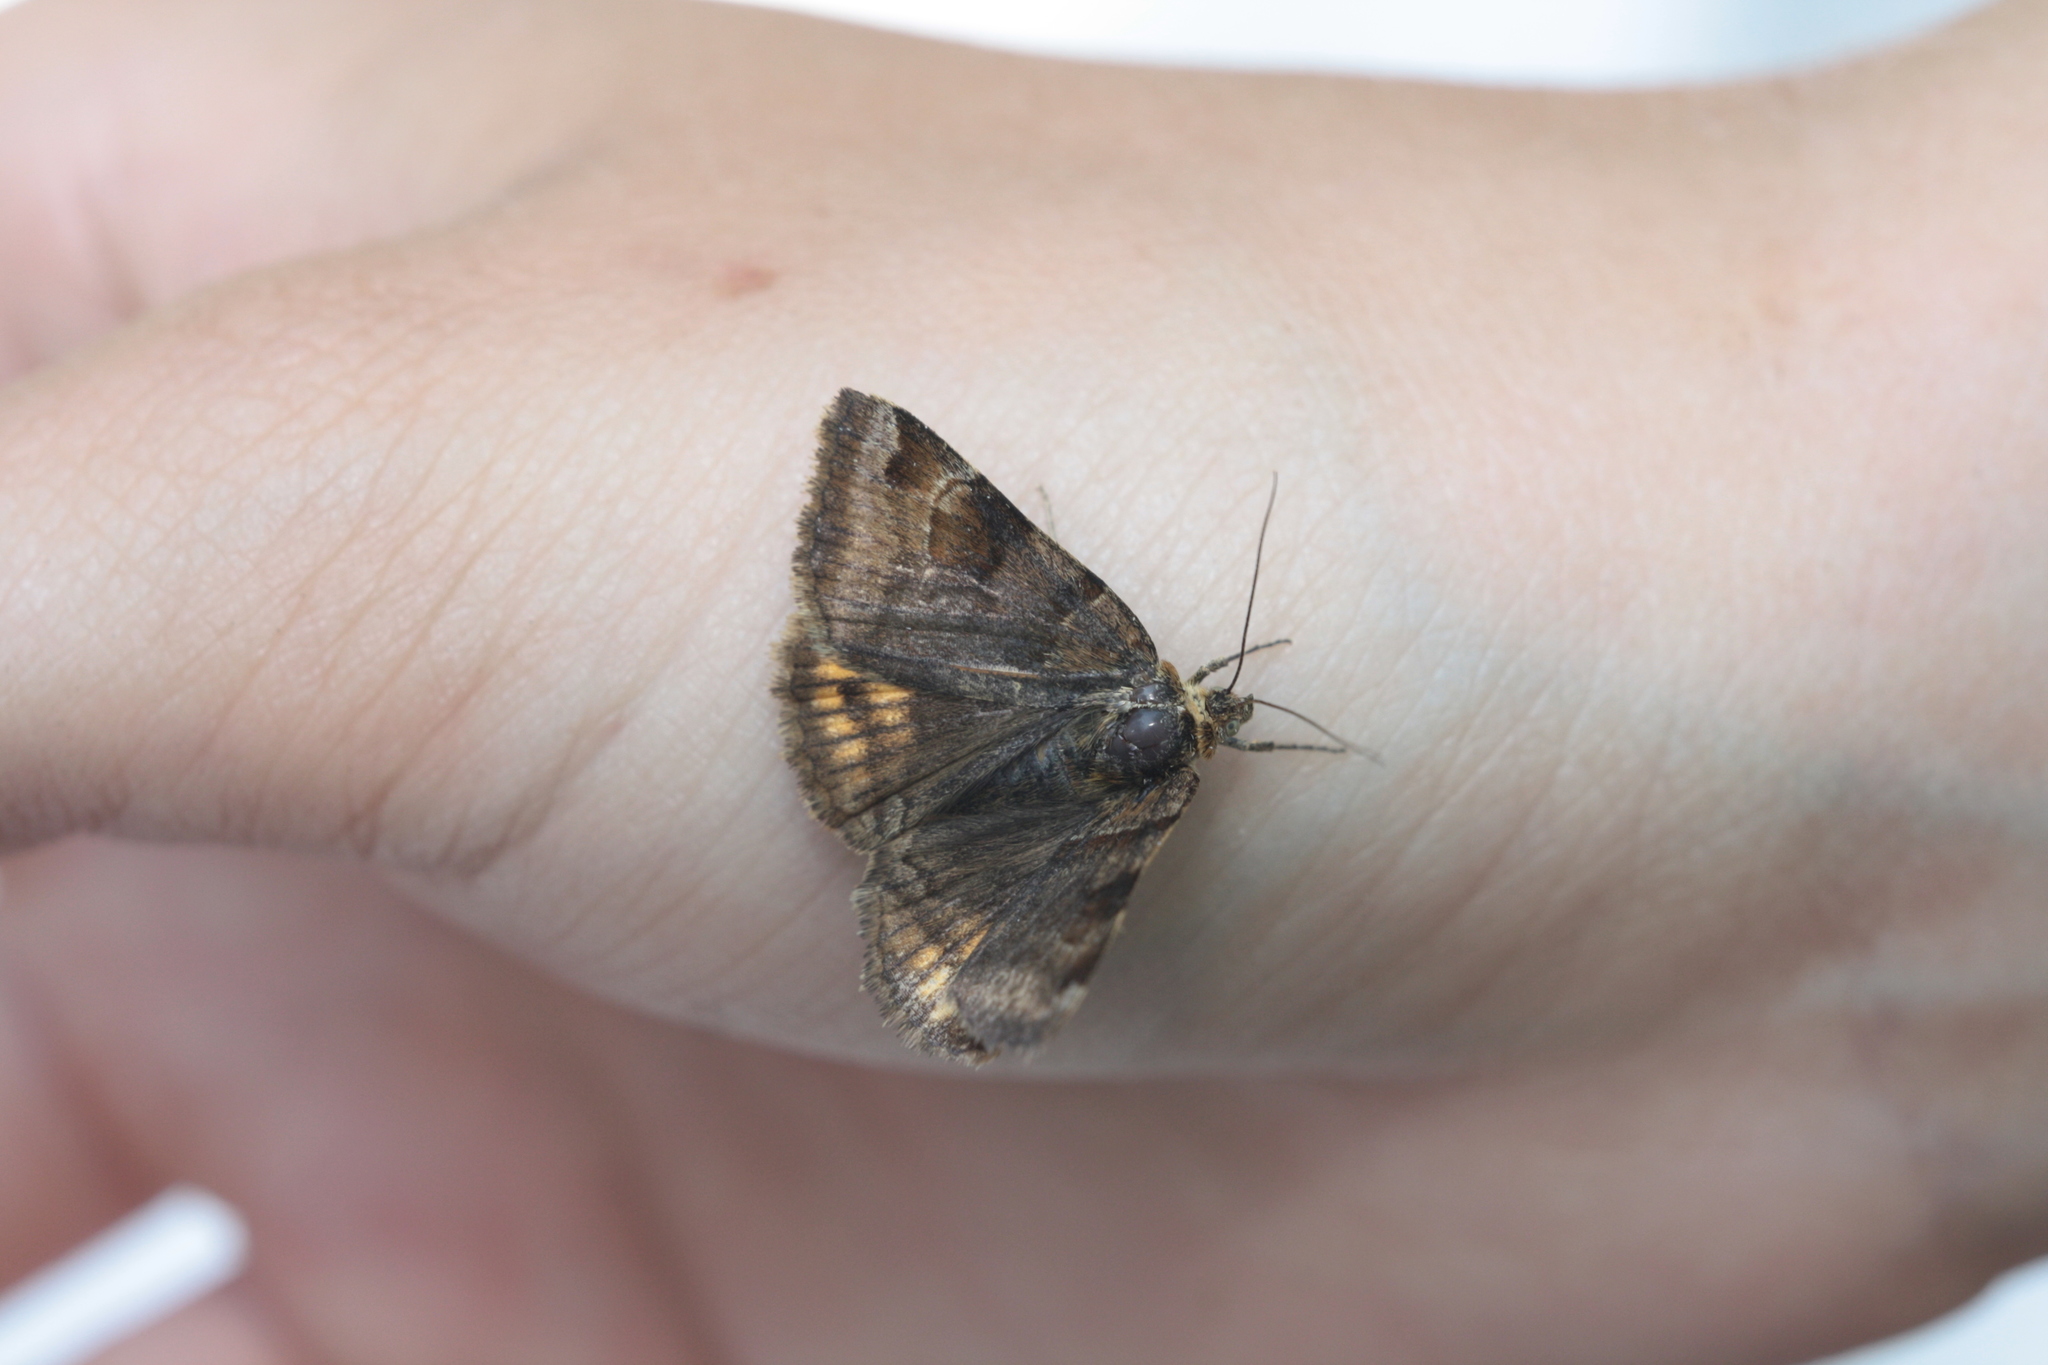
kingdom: Animalia
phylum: Arthropoda
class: Insecta
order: Lepidoptera
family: Erebidae
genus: Euclidia
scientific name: Euclidia glyphica
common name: Burnet companion
